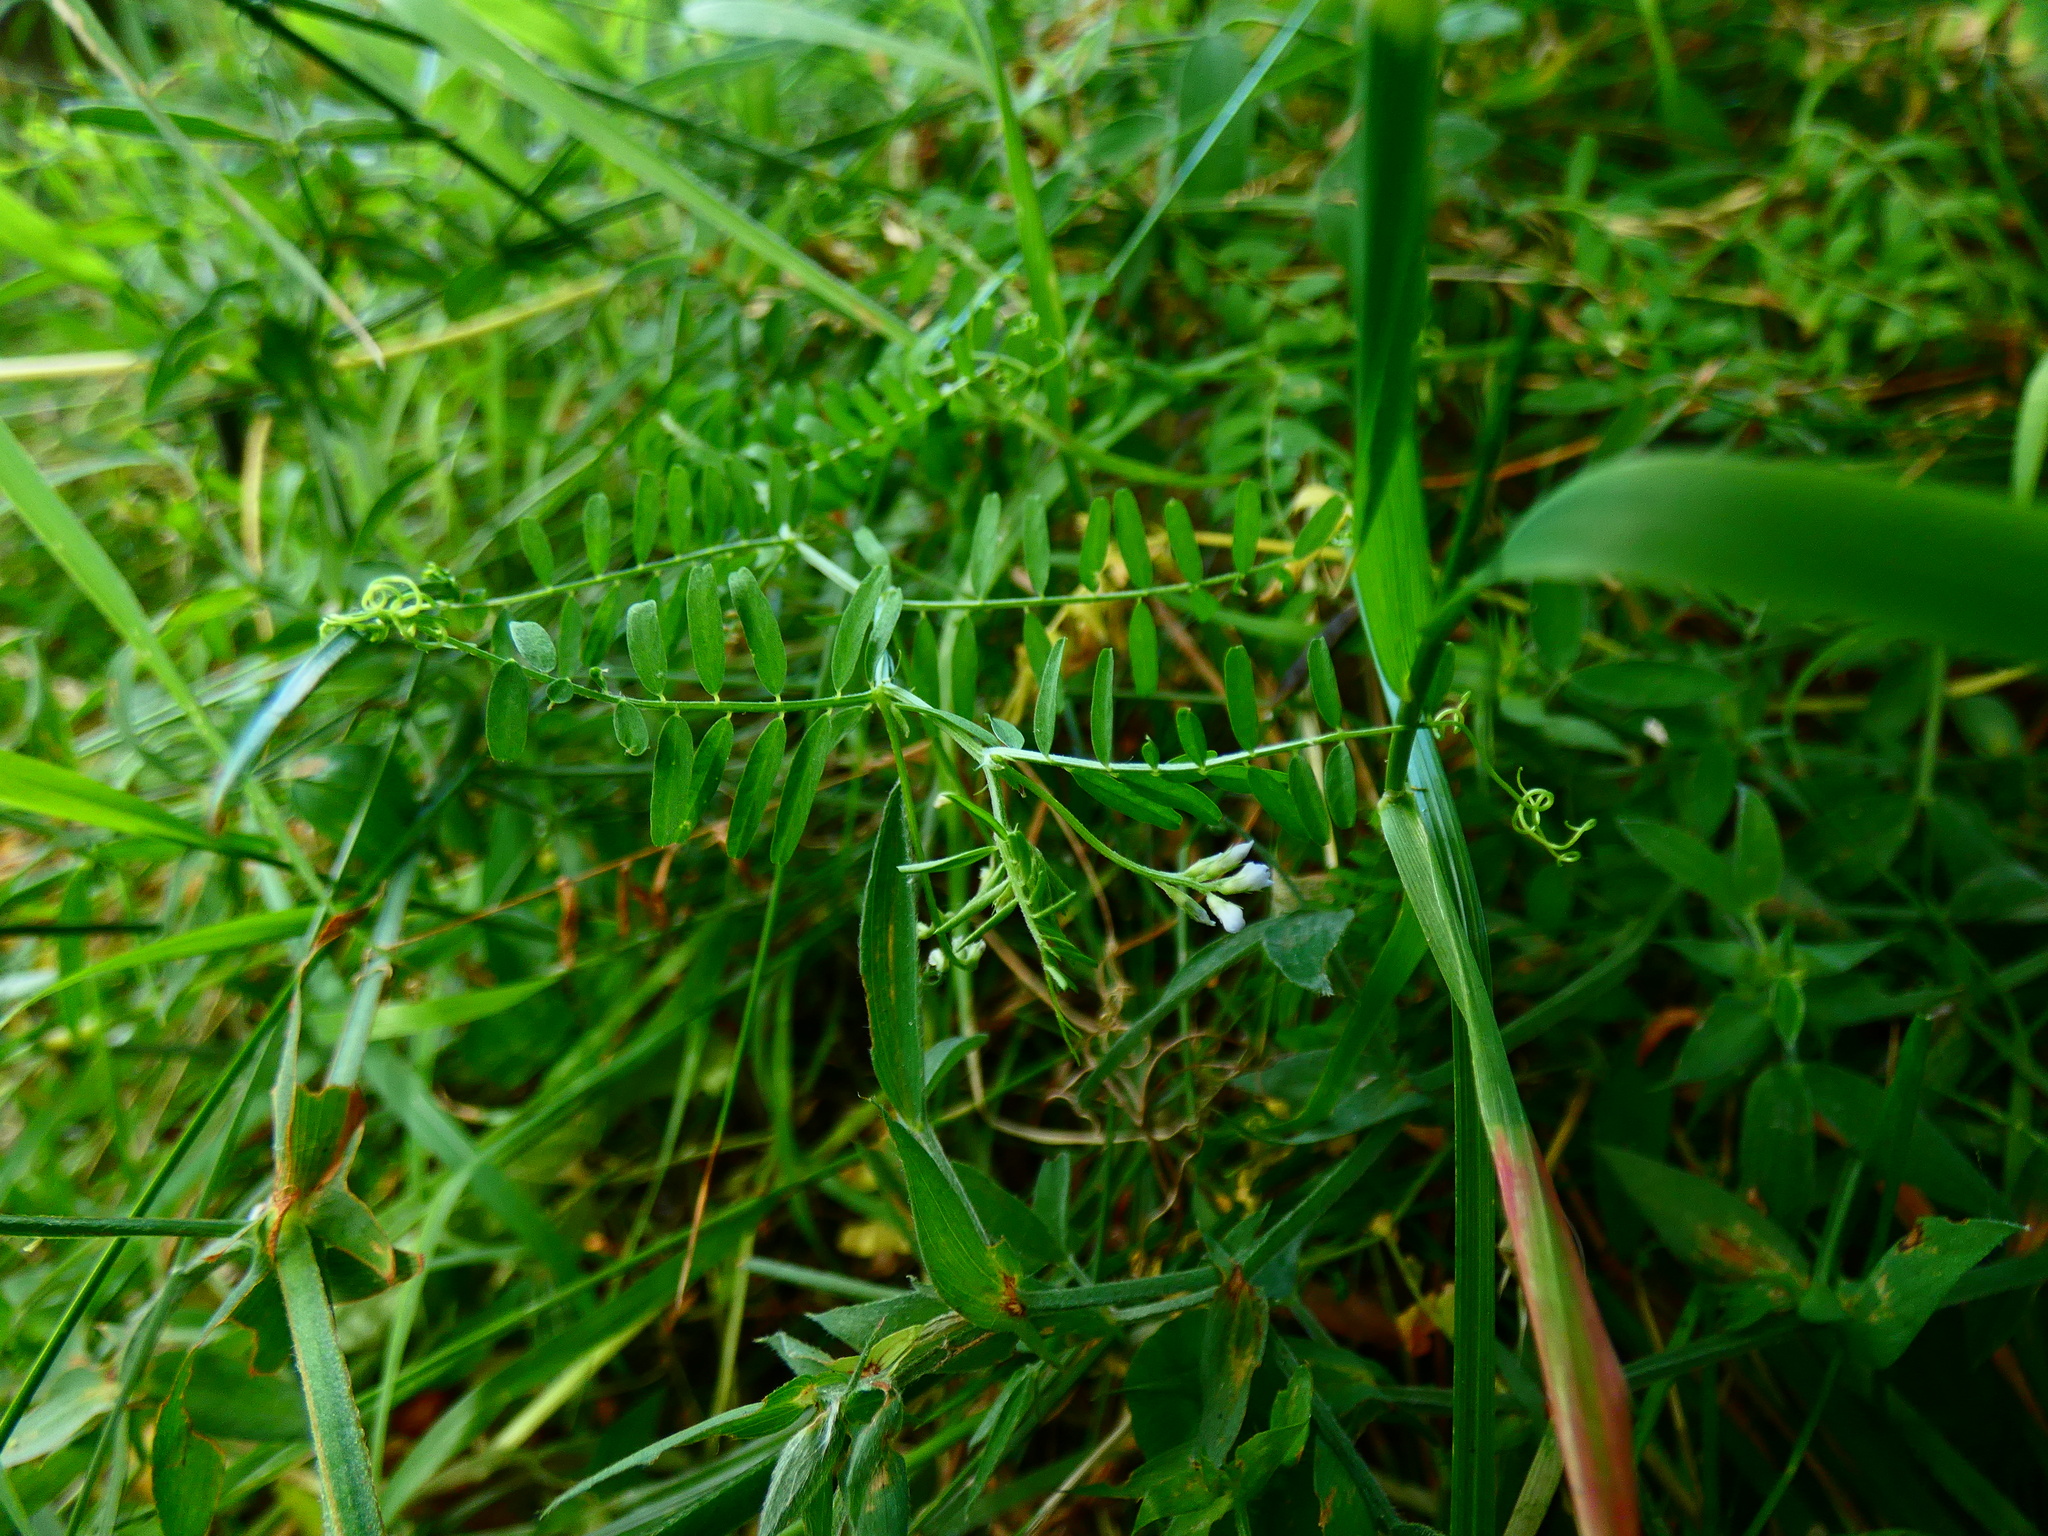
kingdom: Plantae
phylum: Tracheophyta
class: Magnoliopsida
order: Fabales
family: Fabaceae
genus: Vicia
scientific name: Vicia hirsuta
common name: Tiny vetch
